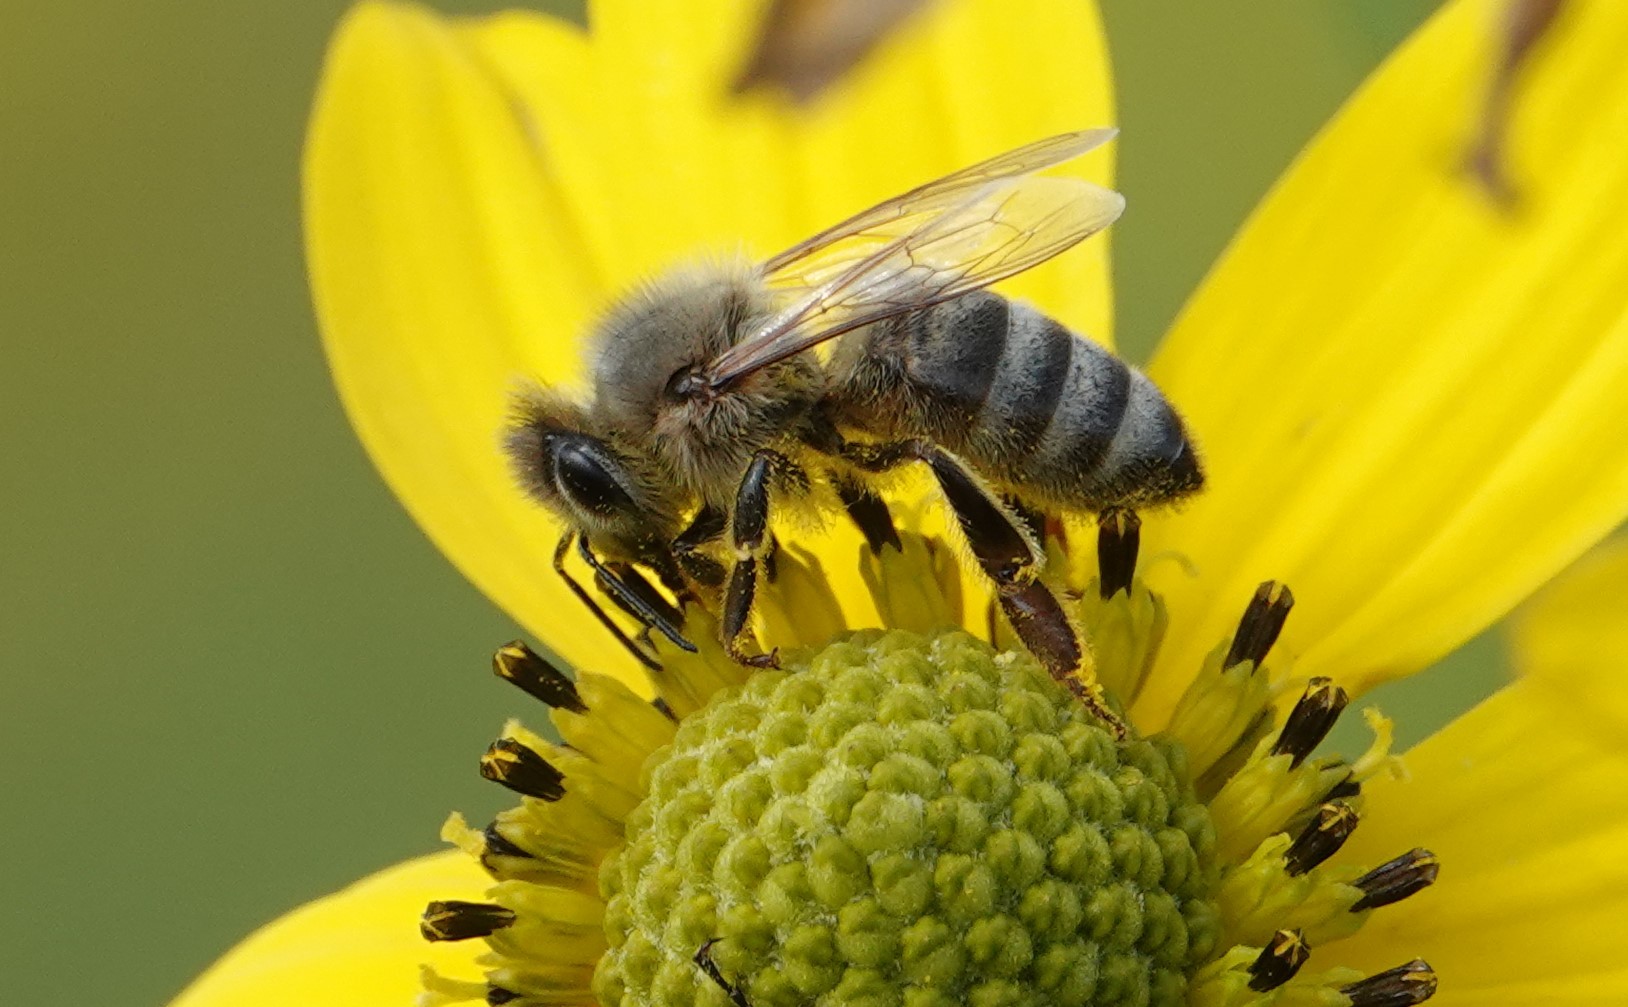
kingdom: Animalia
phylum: Arthropoda
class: Insecta
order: Hymenoptera
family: Apidae
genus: Apis
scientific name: Apis mellifera
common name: Honey bee
